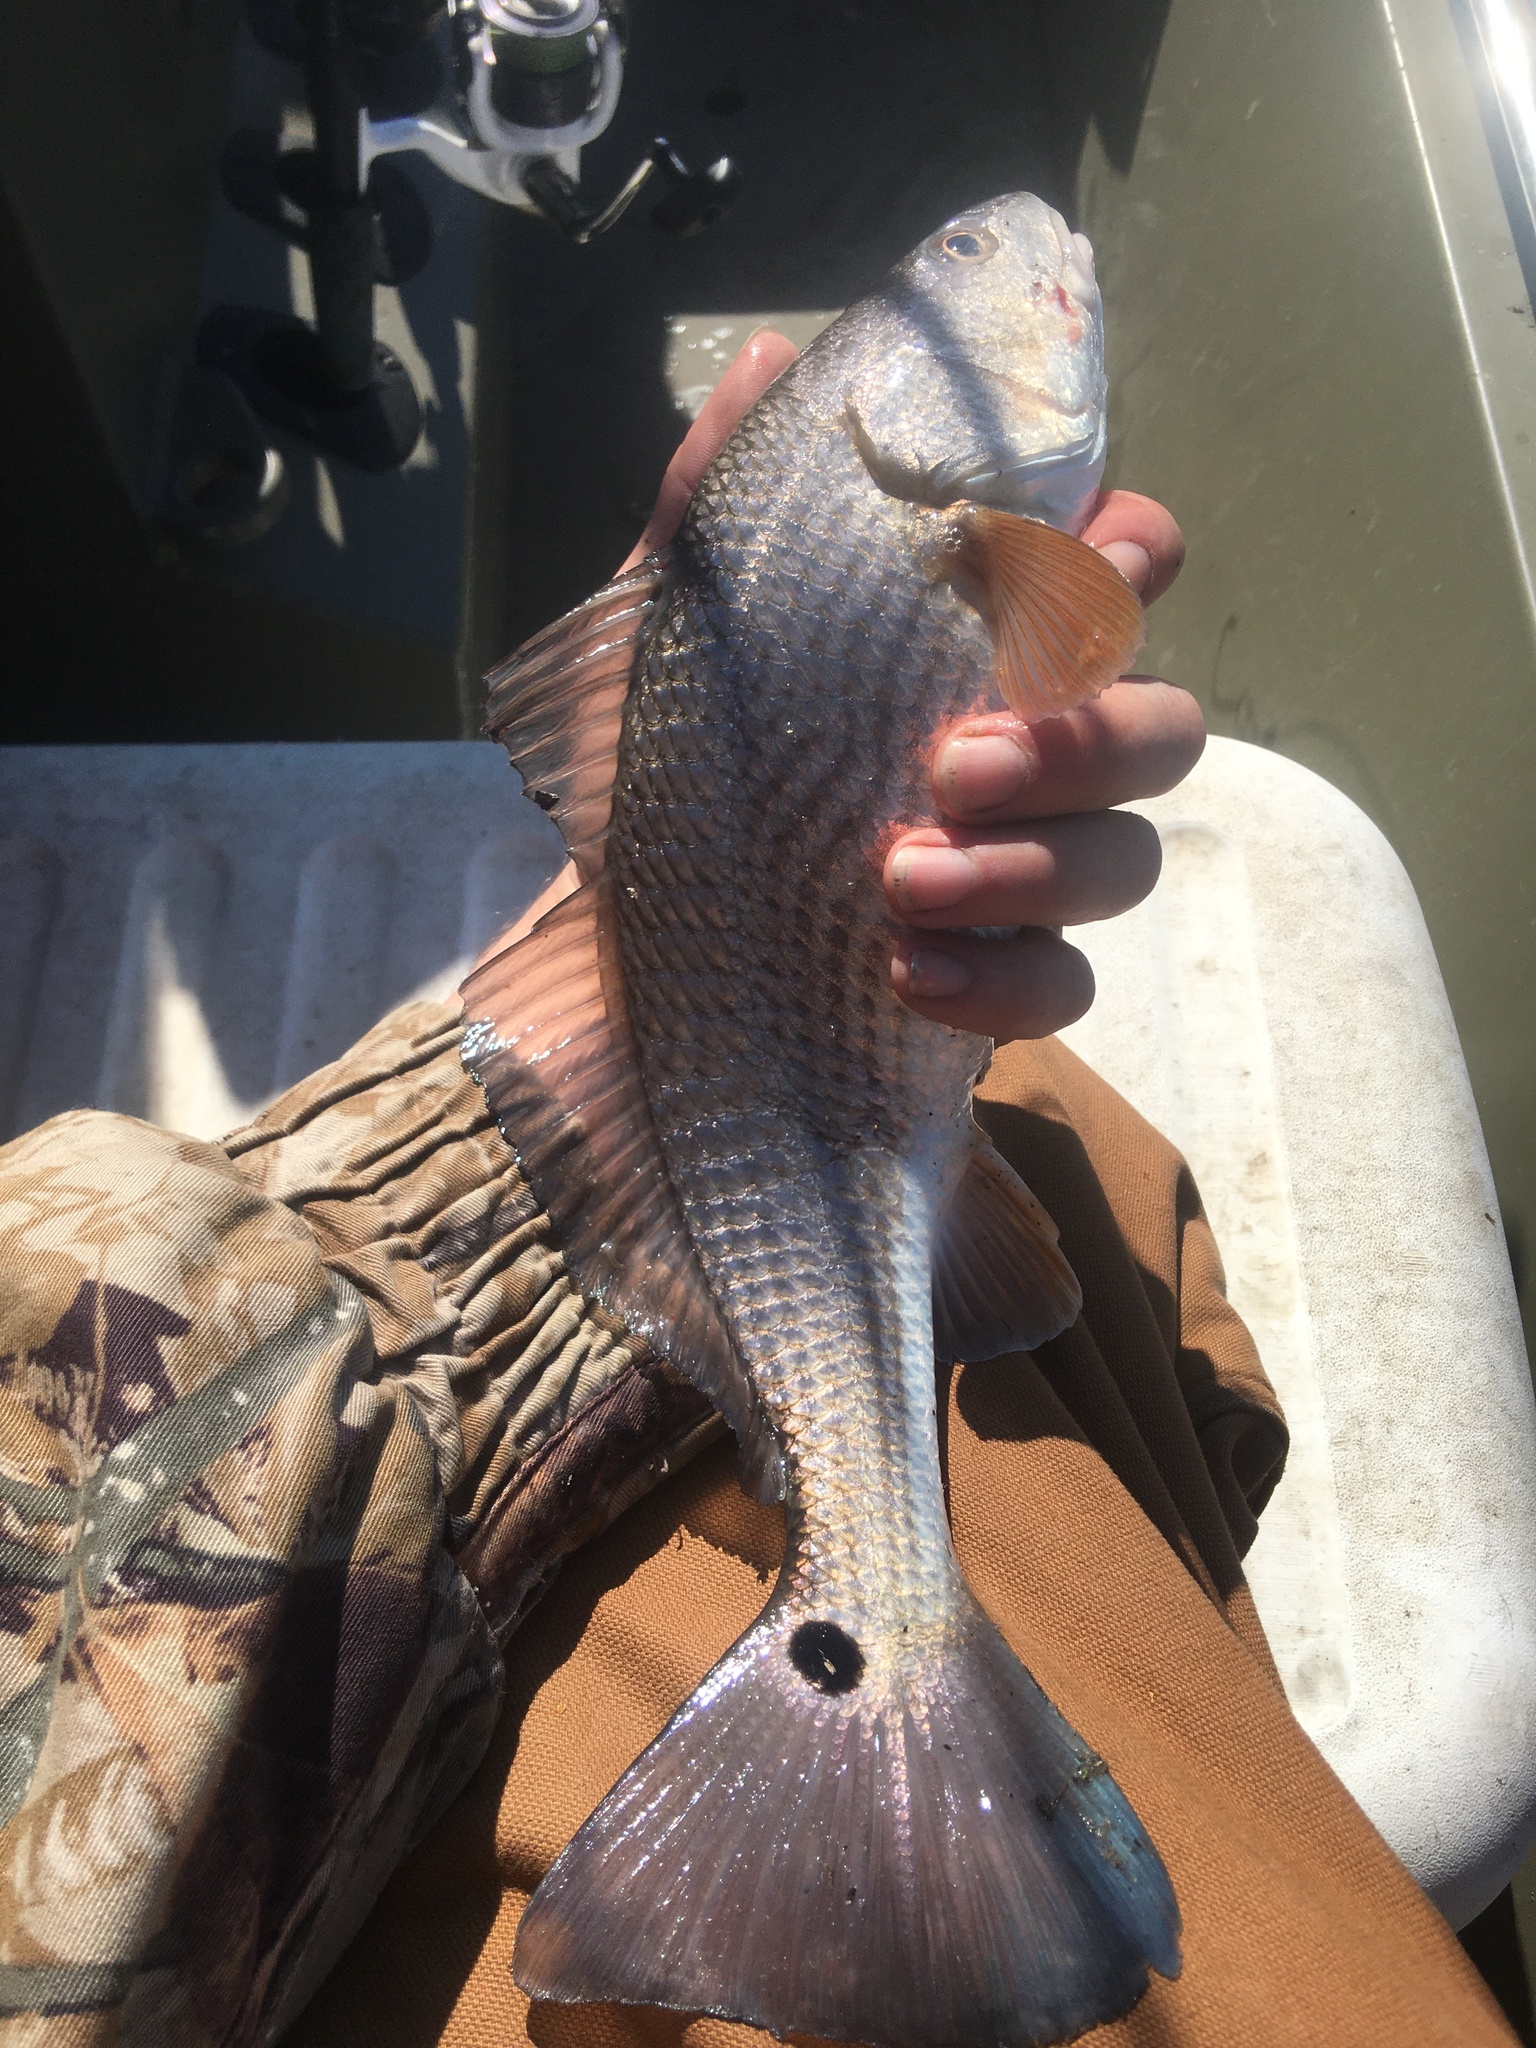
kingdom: Animalia
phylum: Chordata
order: Perciformes
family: Sciaenidae
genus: Sciaenops
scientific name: Sciaenops ocellatus
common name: Red drum
